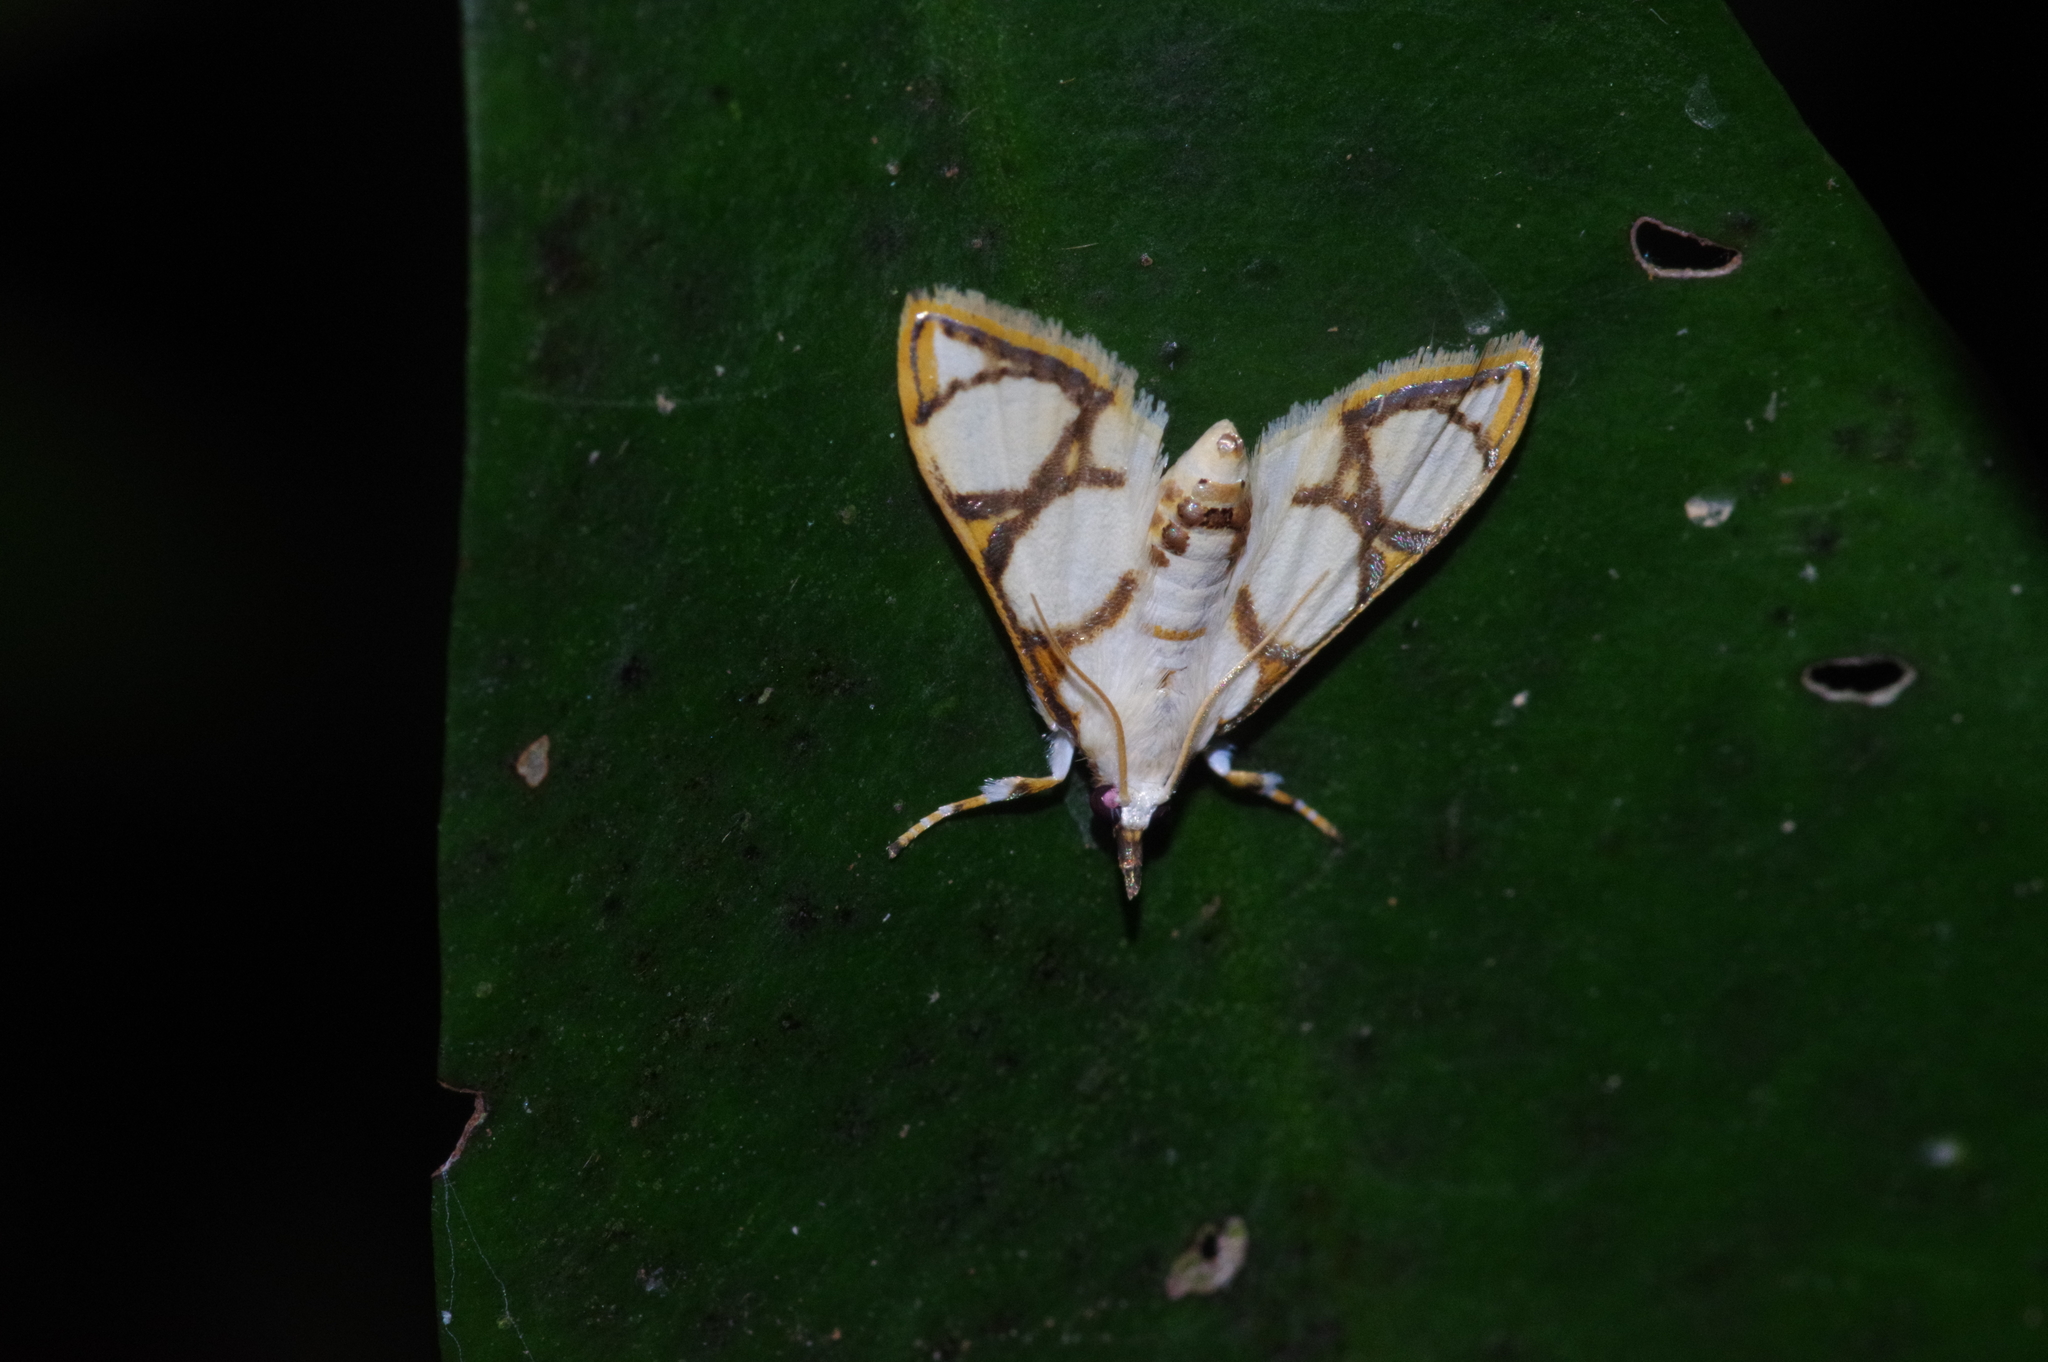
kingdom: Animalia
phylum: Arthropoda
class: Insecta
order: Lepidoptera
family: Crambidae
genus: Cirrhochrista
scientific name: Cirrhochrista kosemponialis
